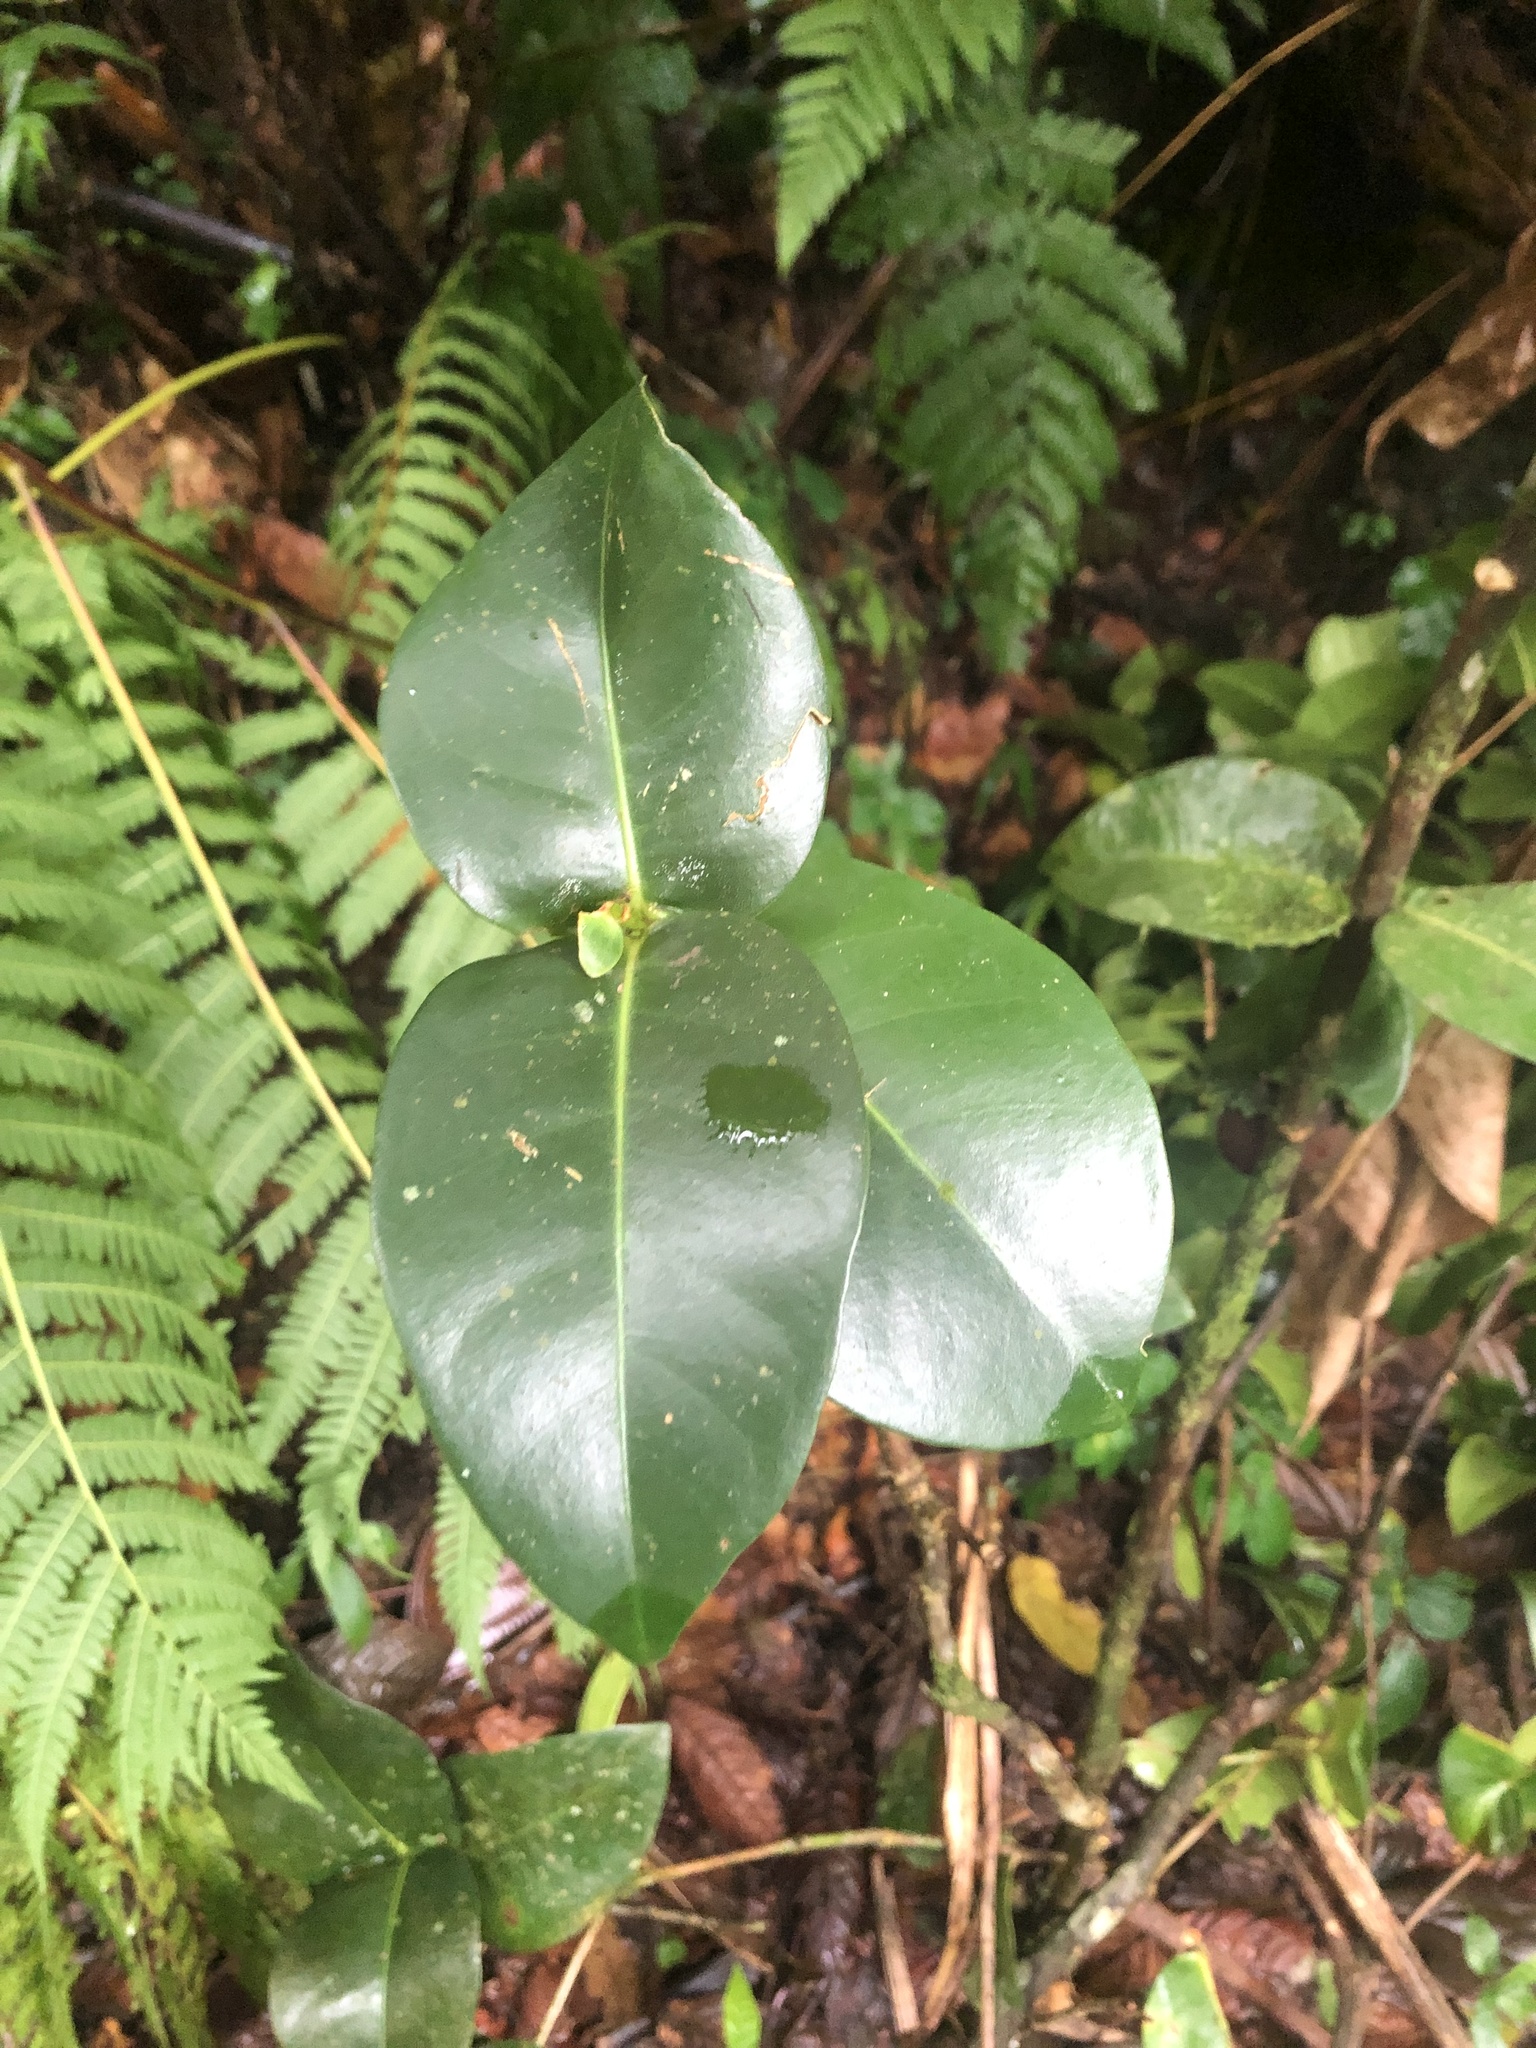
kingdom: Plantae
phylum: Tracheophyta
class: Magnoliopsida
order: Sapindales
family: Rutaceae
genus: Ravenia
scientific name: Ravenia urbani
